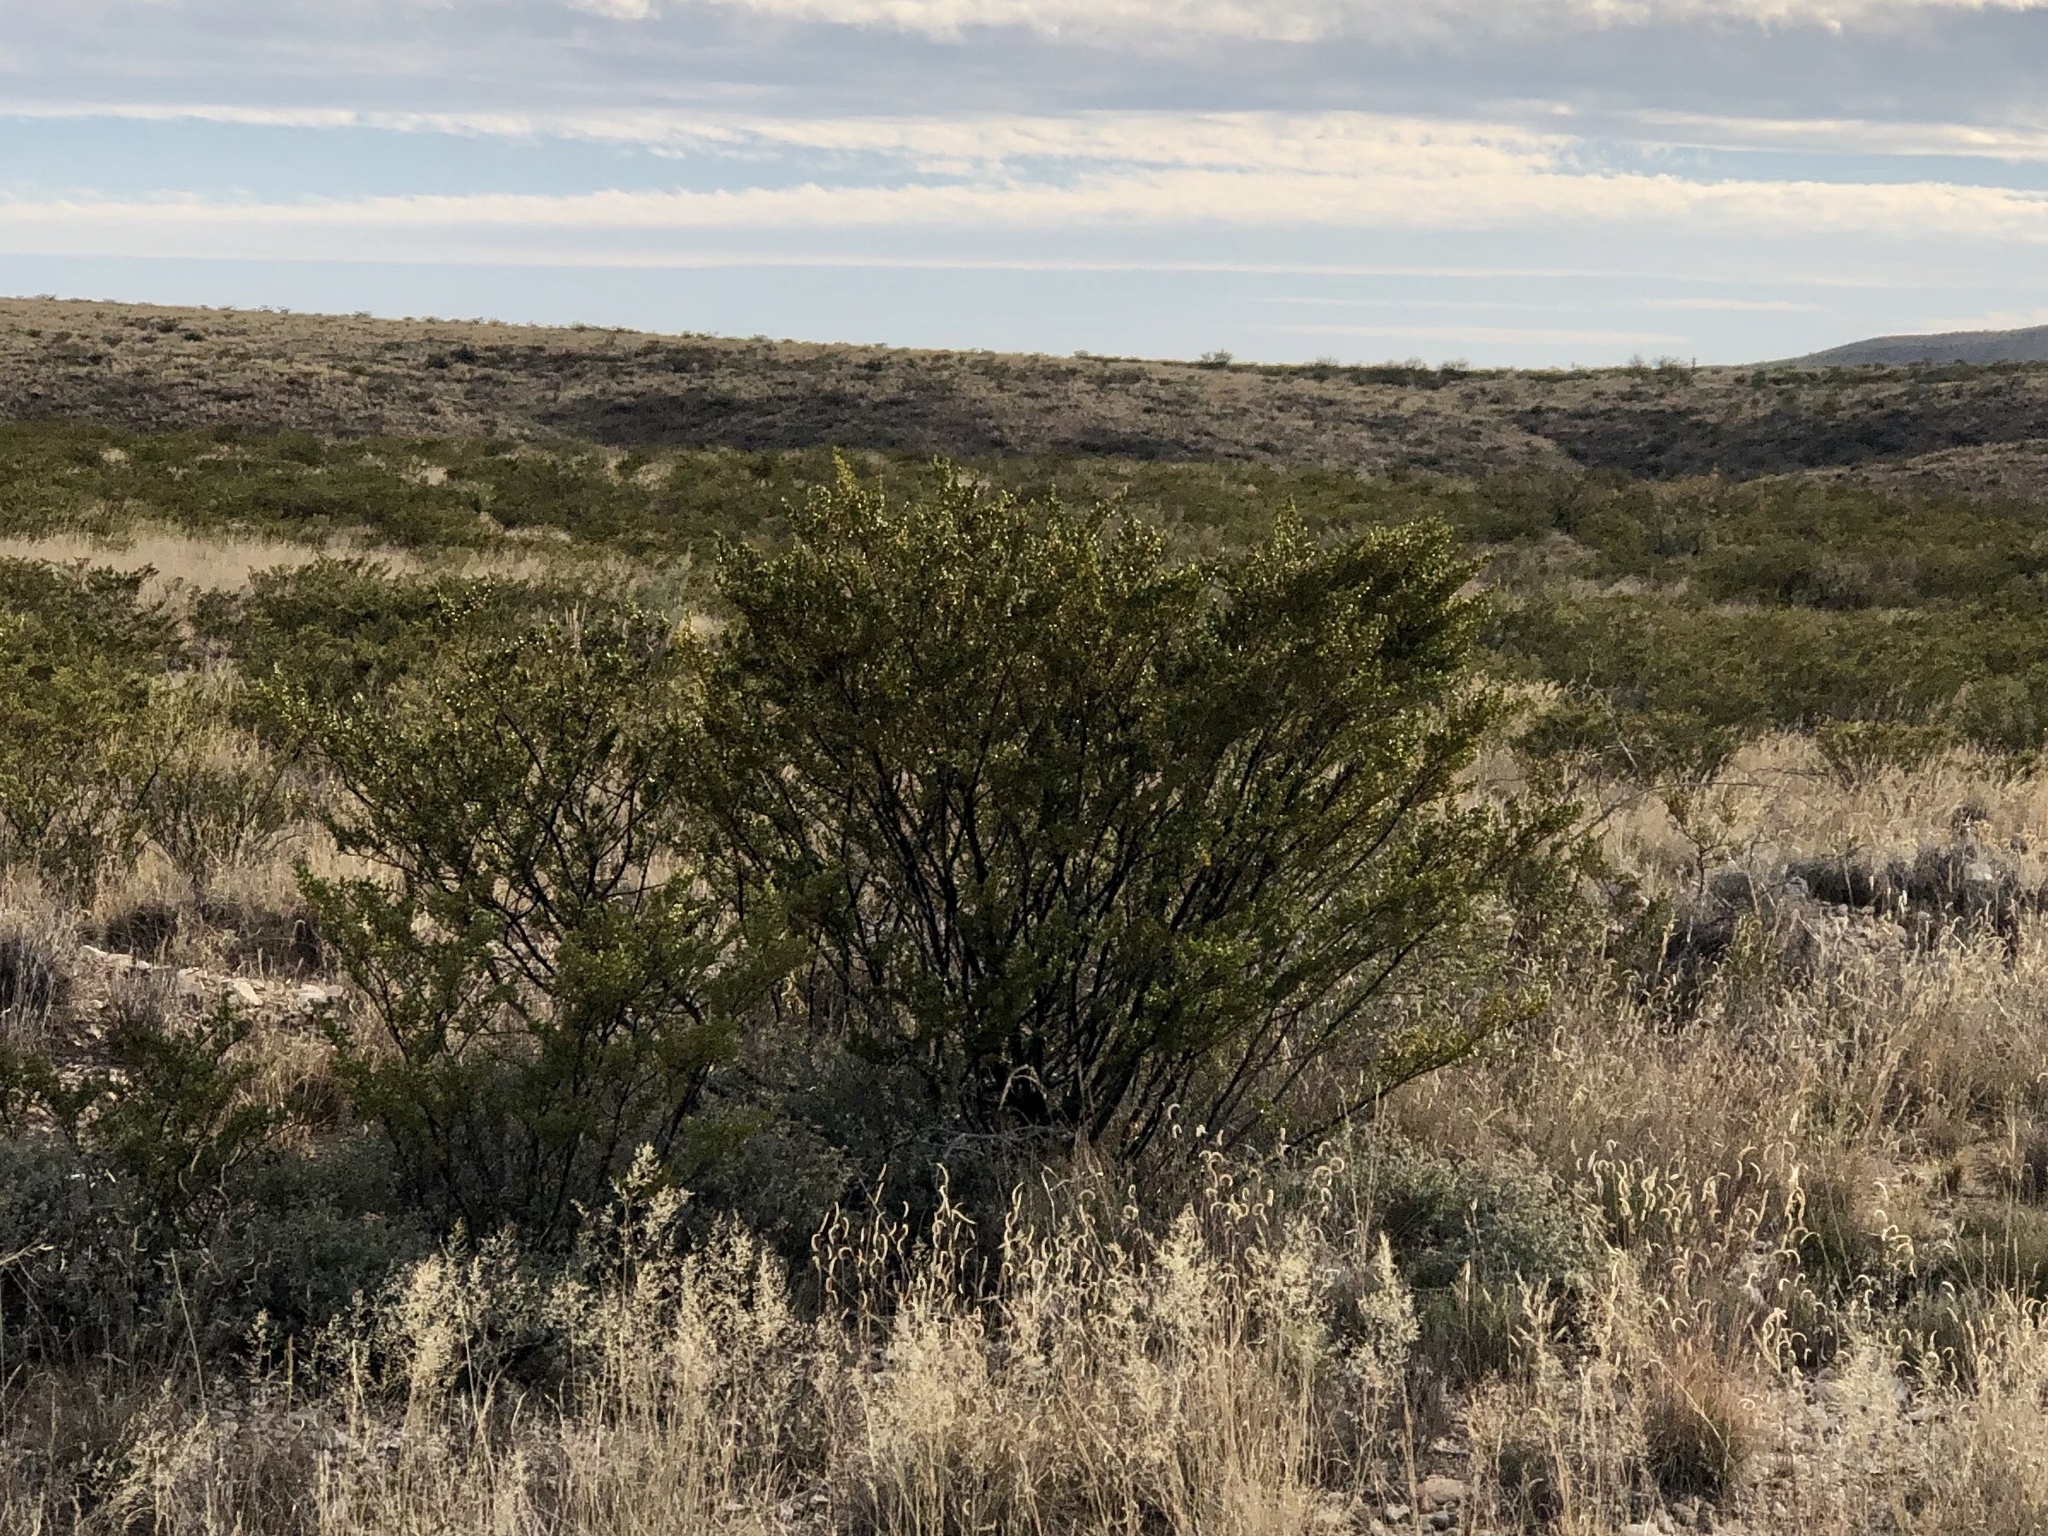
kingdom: Plantae
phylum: Tracheophyta
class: Magnoliopsida
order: Zygophyllales
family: Zygophyllaceae
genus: Larrea
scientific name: Larrea tridentata
